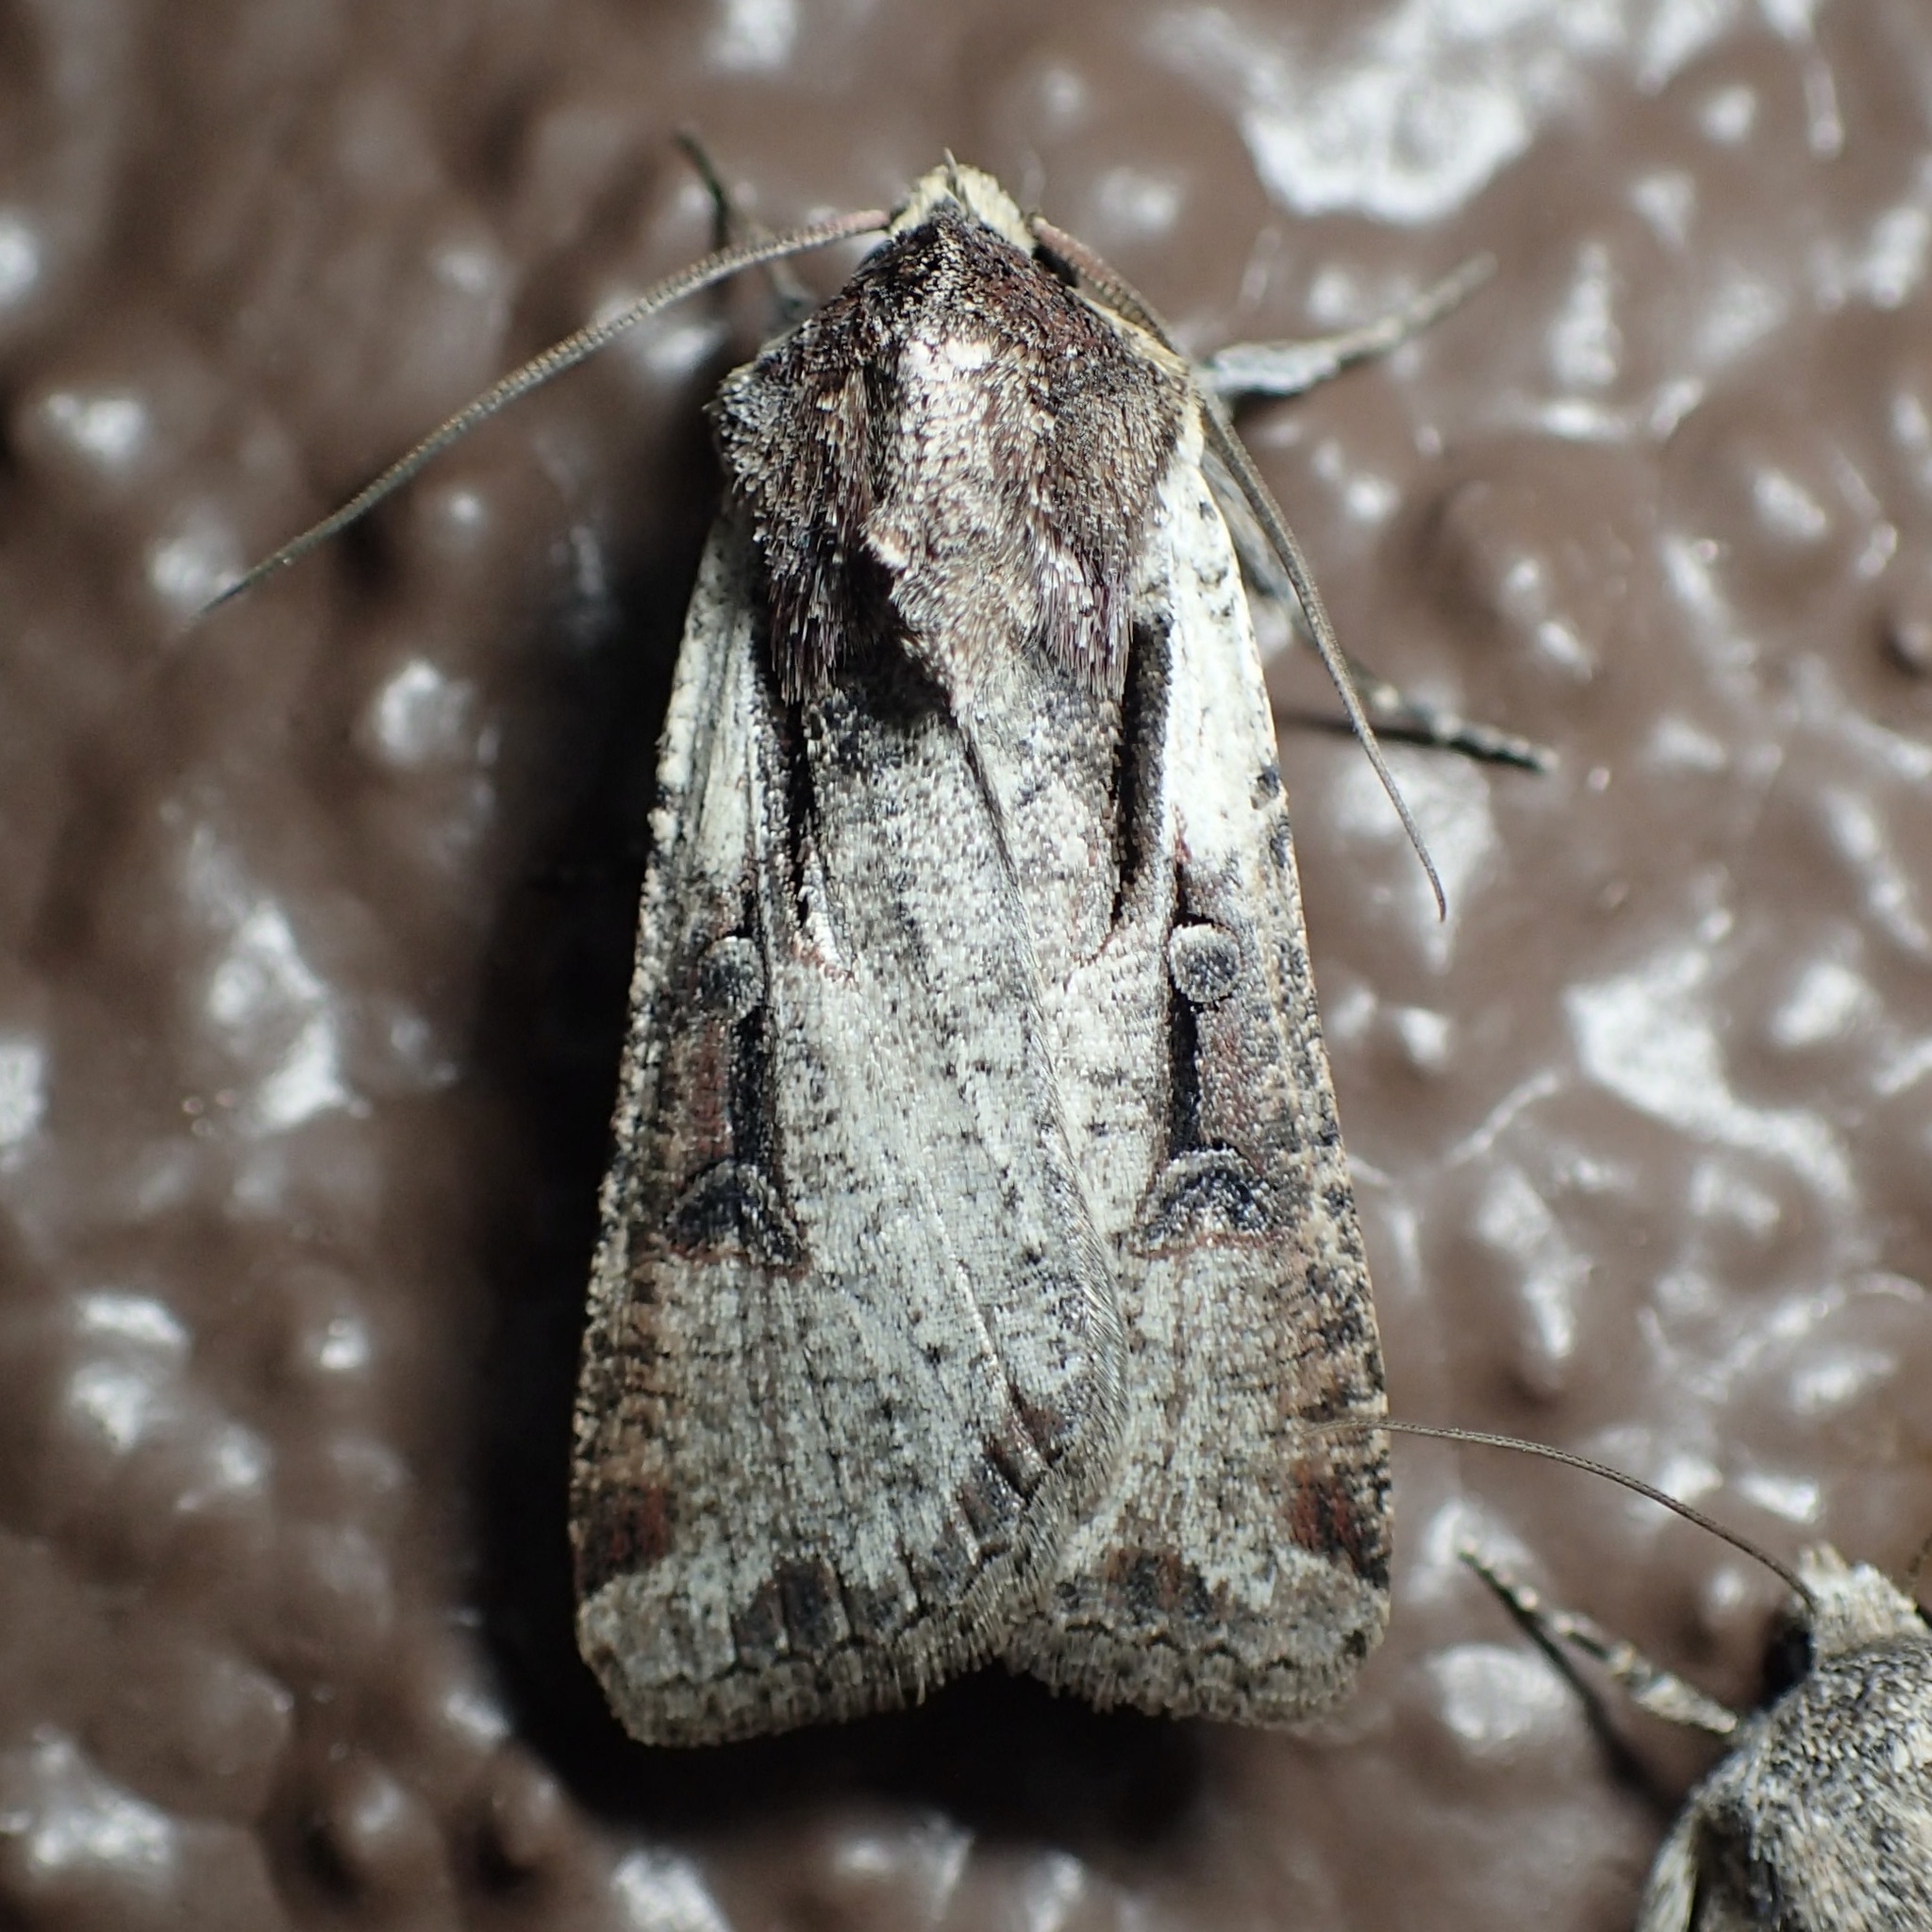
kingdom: Animalia
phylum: Arthropoda
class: Insecta
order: Lepidoptera
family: Noctuidae
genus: Hemieuxoa
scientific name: Hemieuxoa rudens
